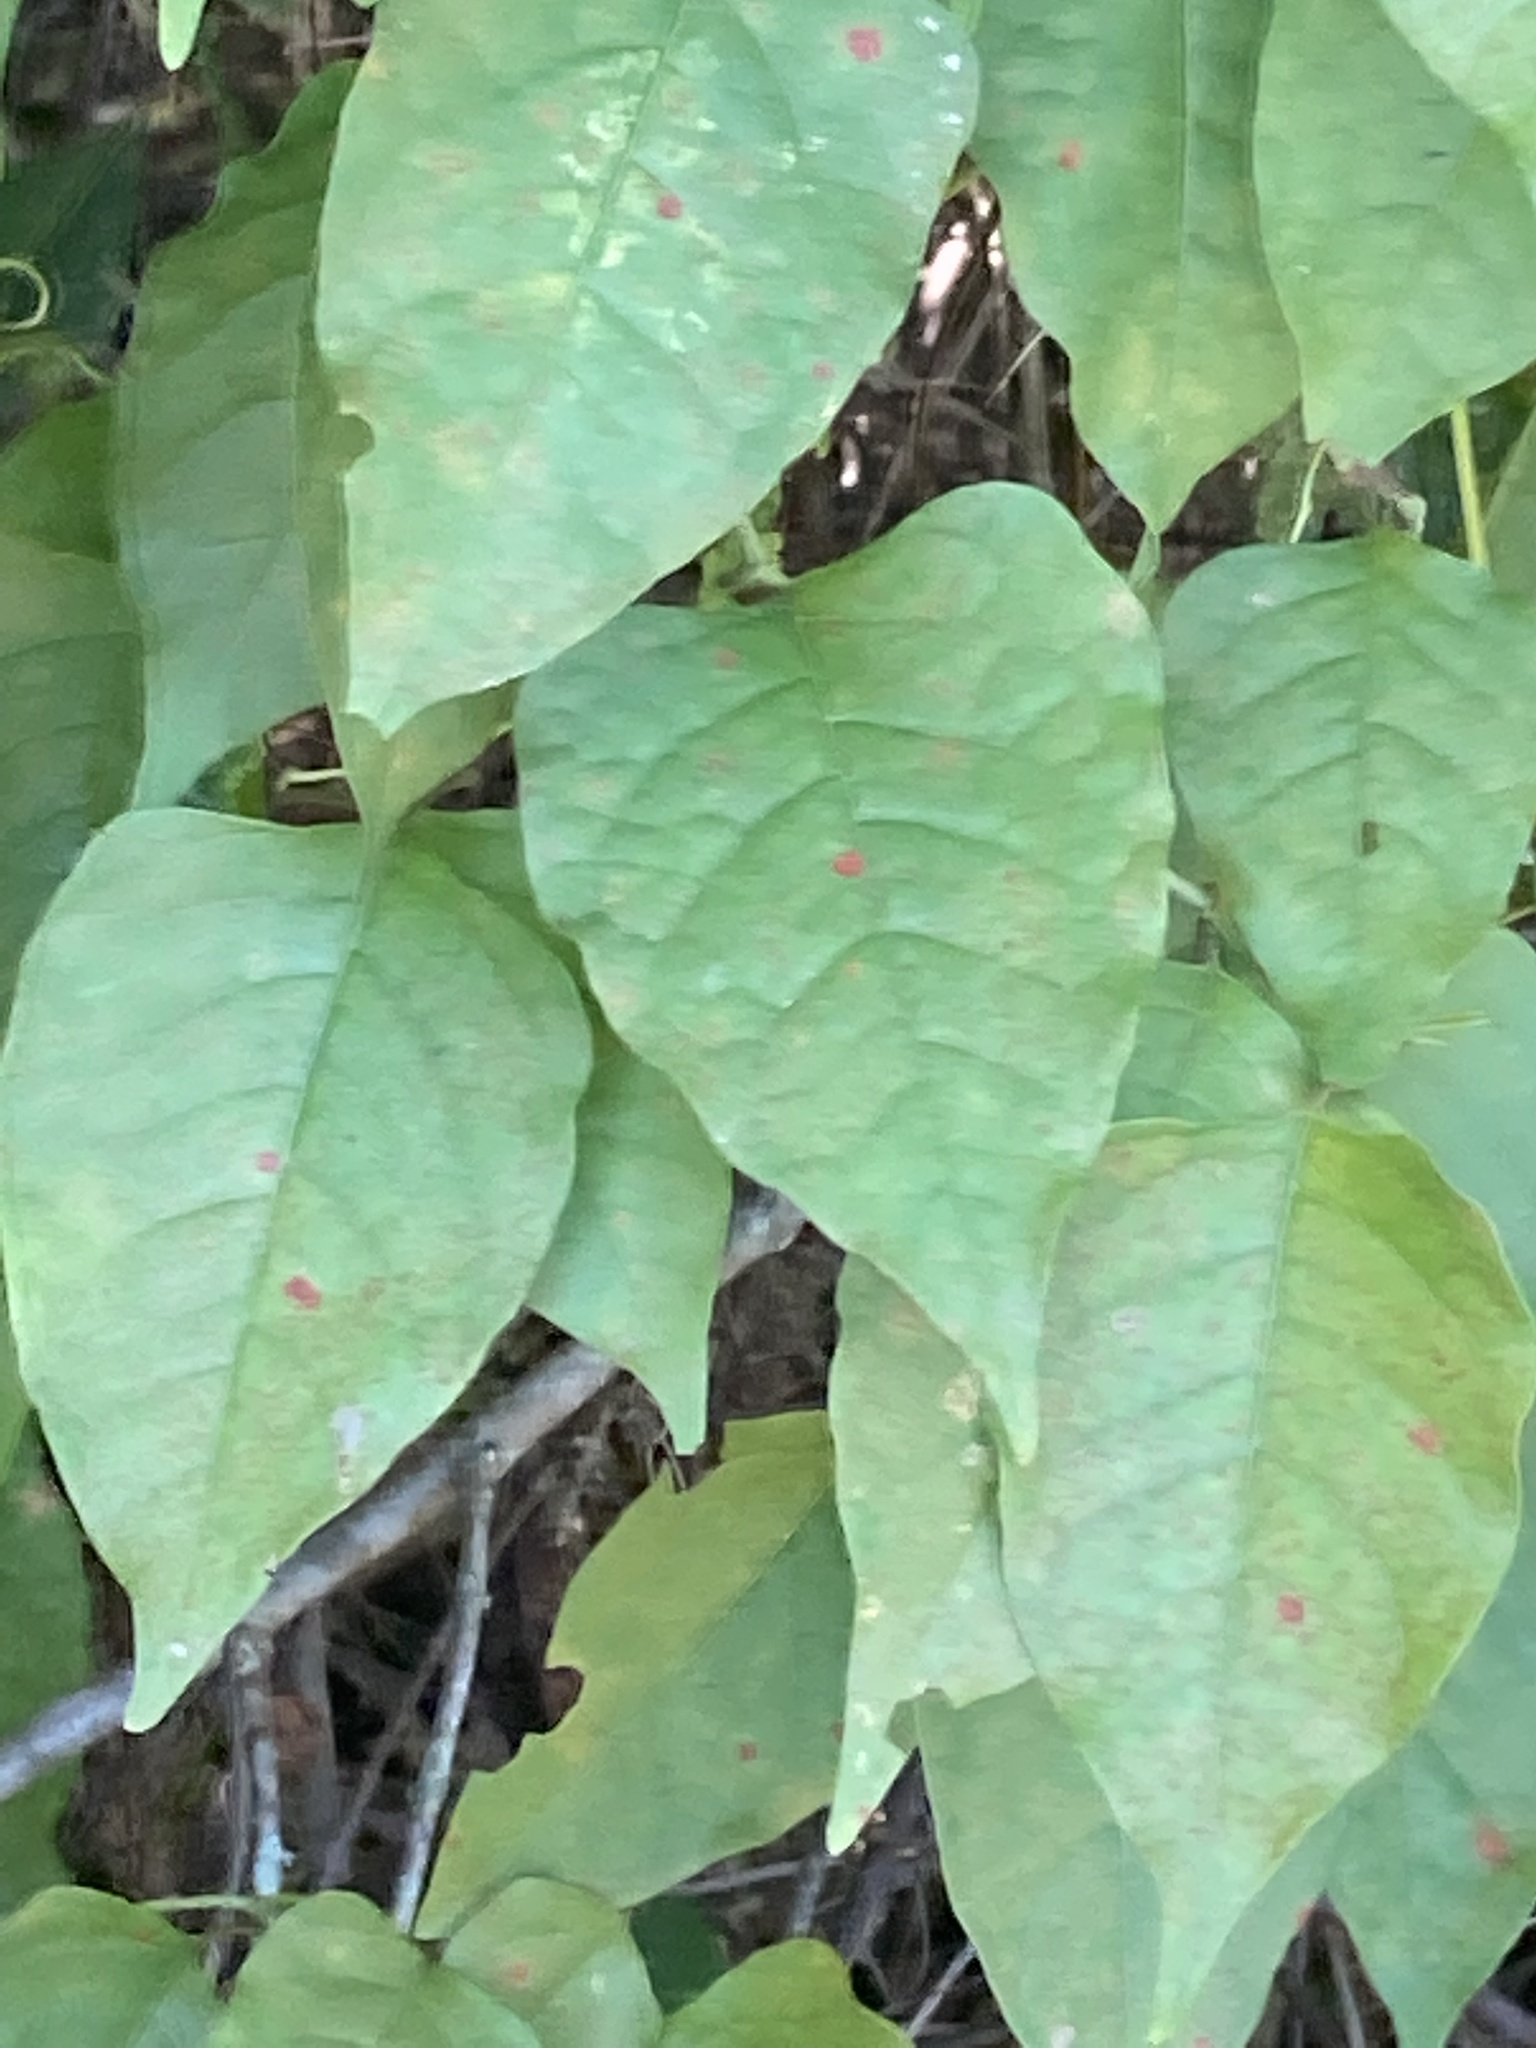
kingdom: Plantae
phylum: Tracheophyta
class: Magnoliopsida
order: Caryophyllales
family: Polygonaceae
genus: Brunnichia
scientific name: Brunnichia ovata
